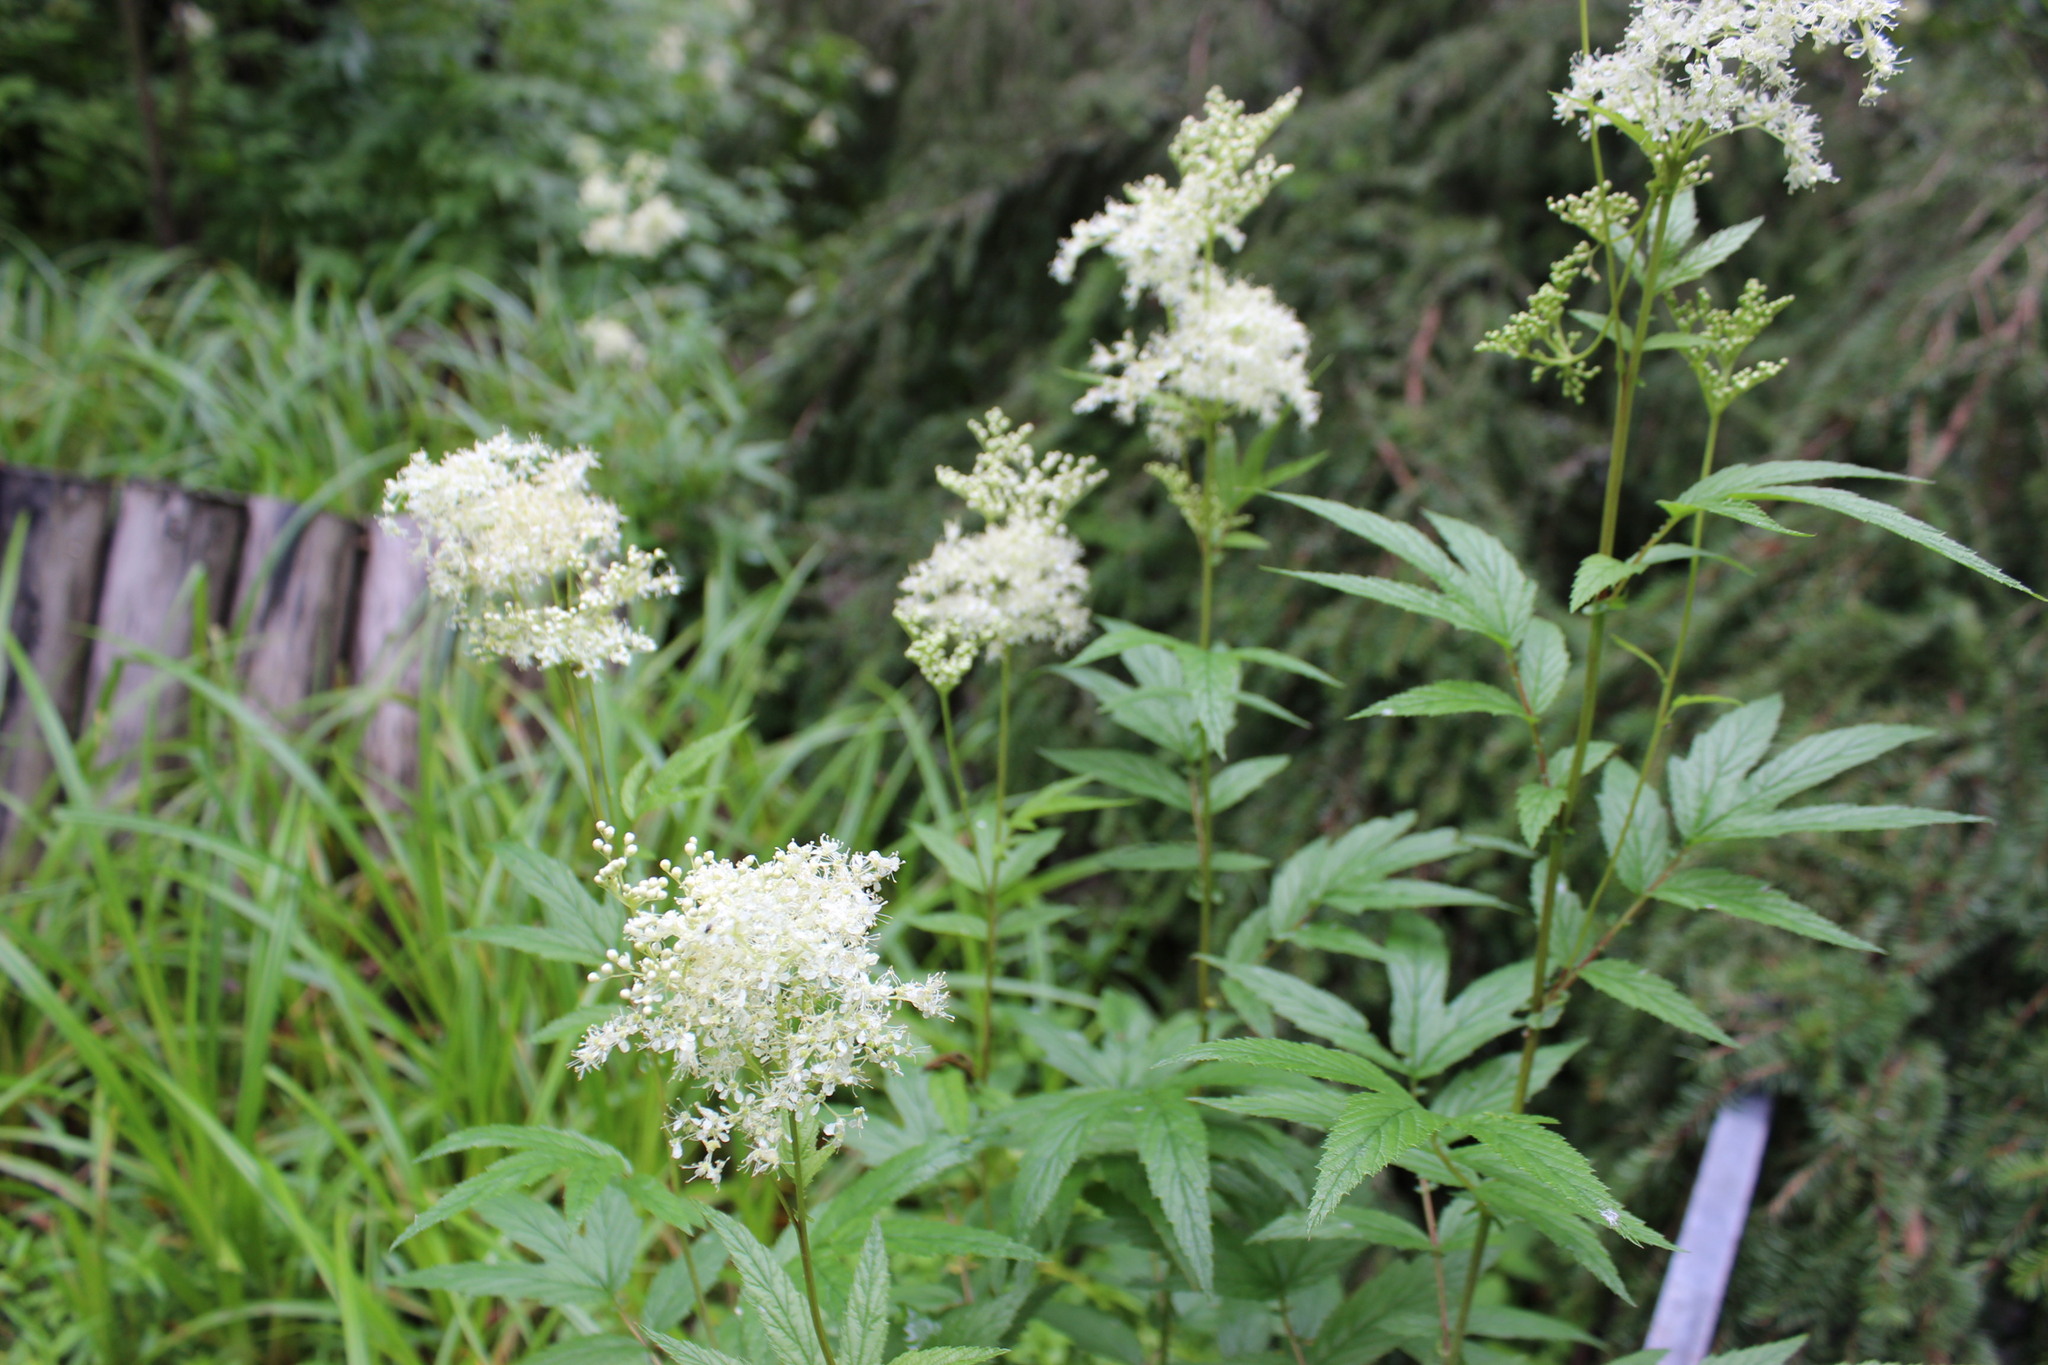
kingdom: Plantae
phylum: Tracheophyta
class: Magnoliopsida
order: Rosales
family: Rosaceae
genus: Filipendula
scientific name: Filipendula ulmaria
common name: Meadowsweet
